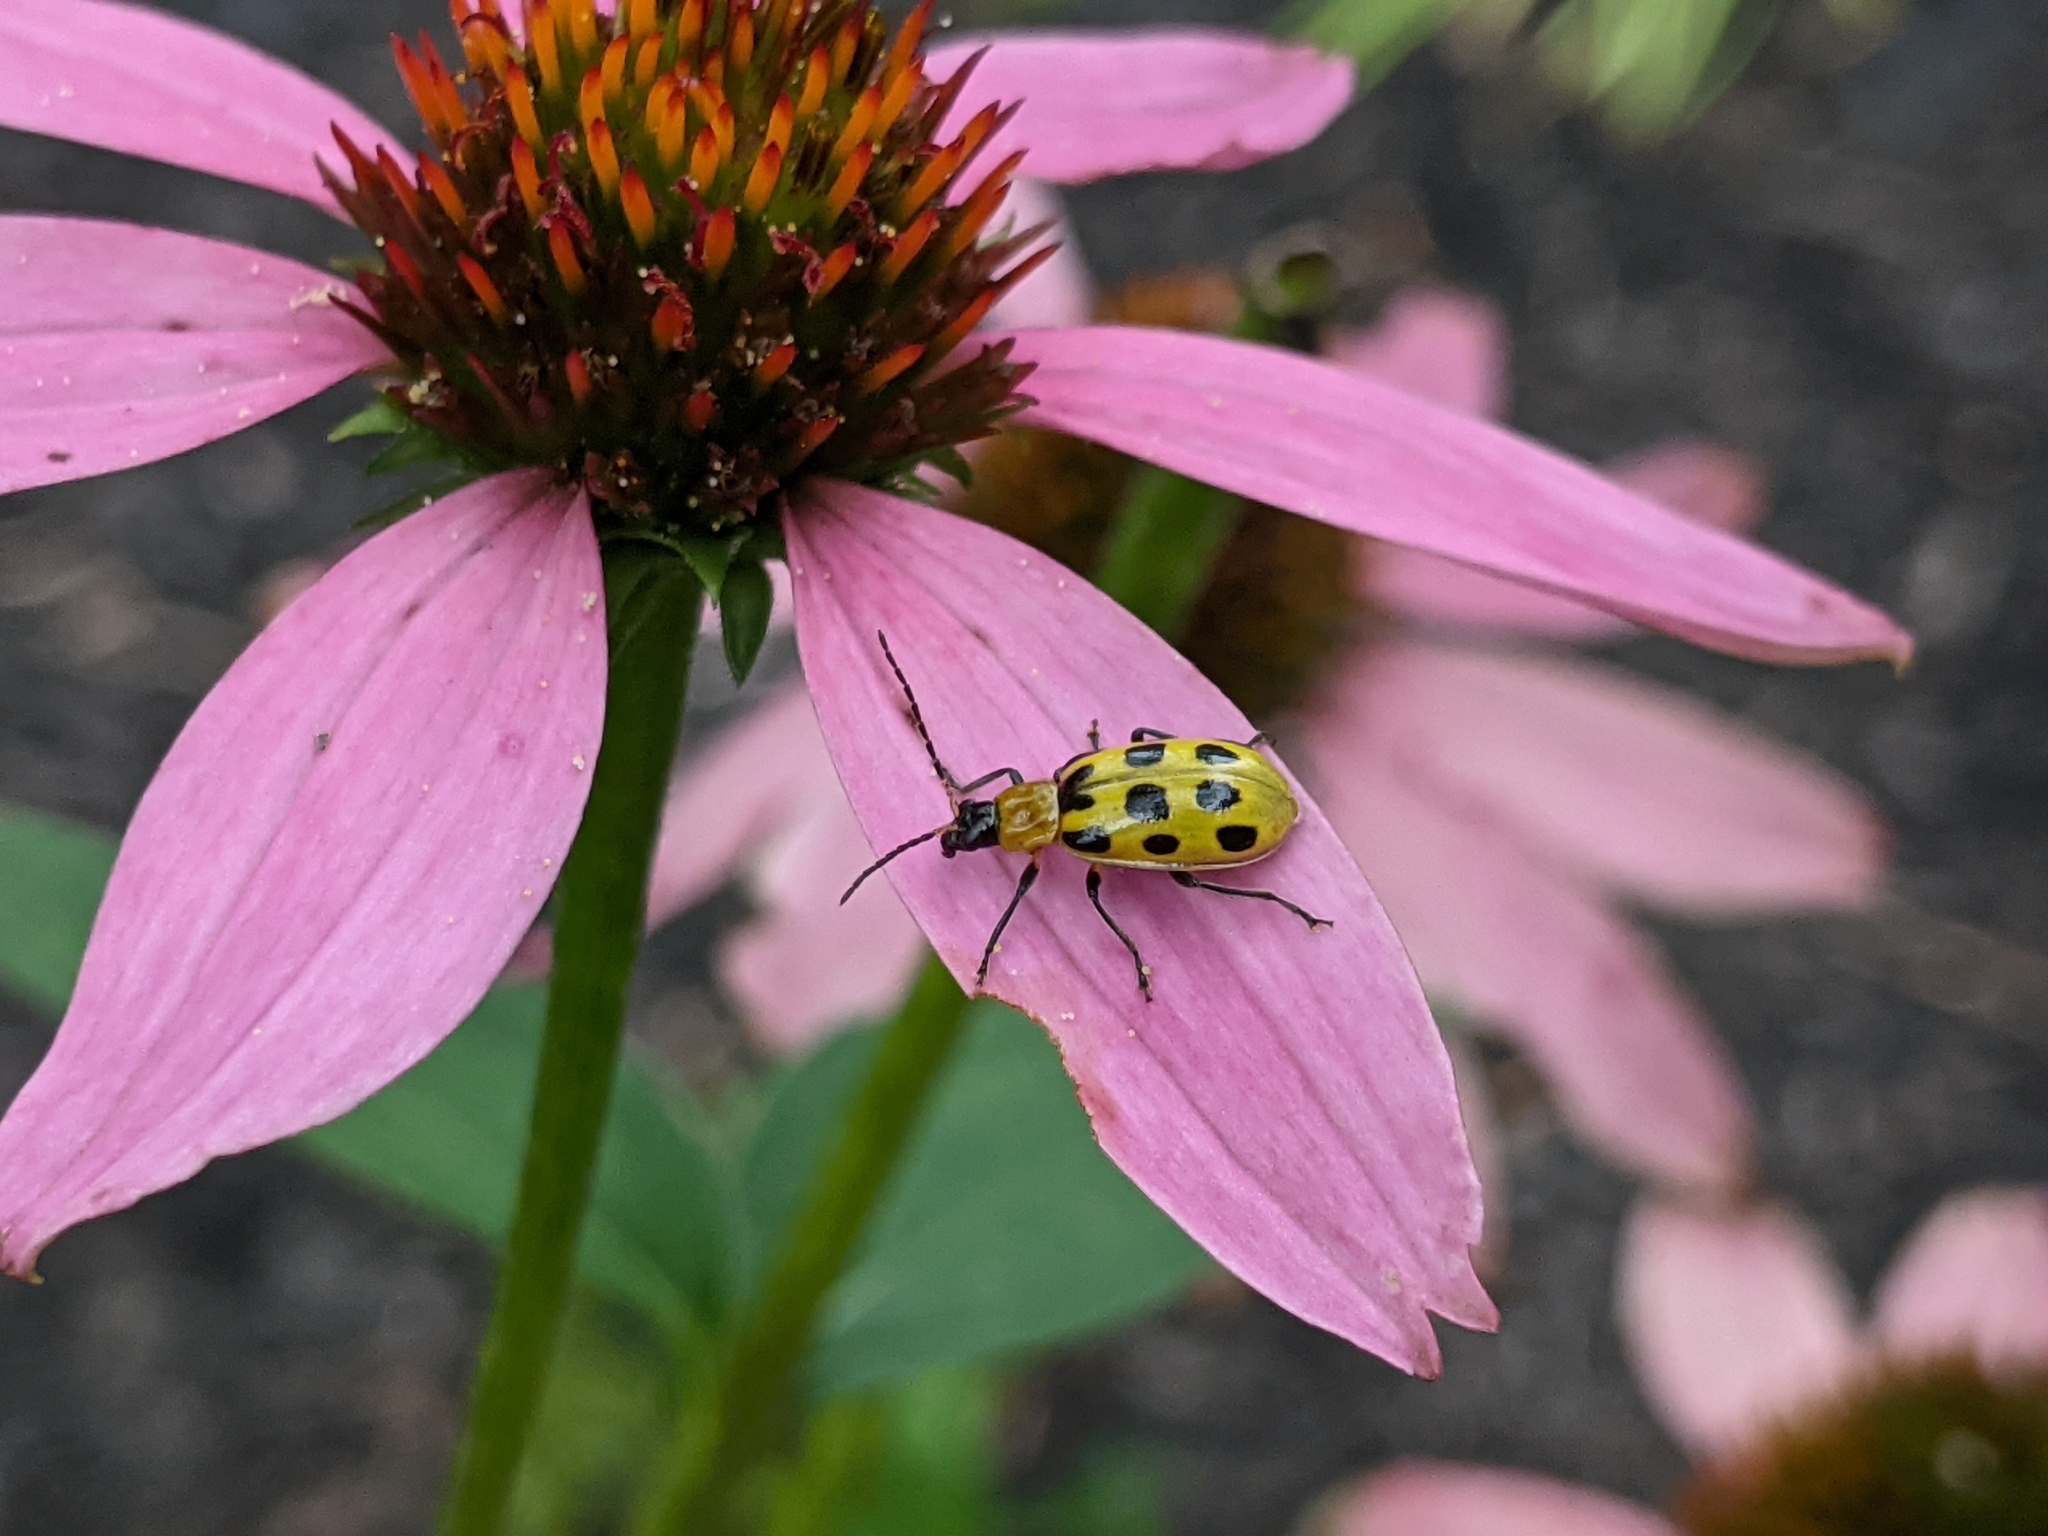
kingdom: Animalia
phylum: Arthropoda
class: Insecta
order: Coleoptera
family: Chrysomelidae
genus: Diabrotica
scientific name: Diabrotica undecimpunctata
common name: Spotted cucumber beetle
